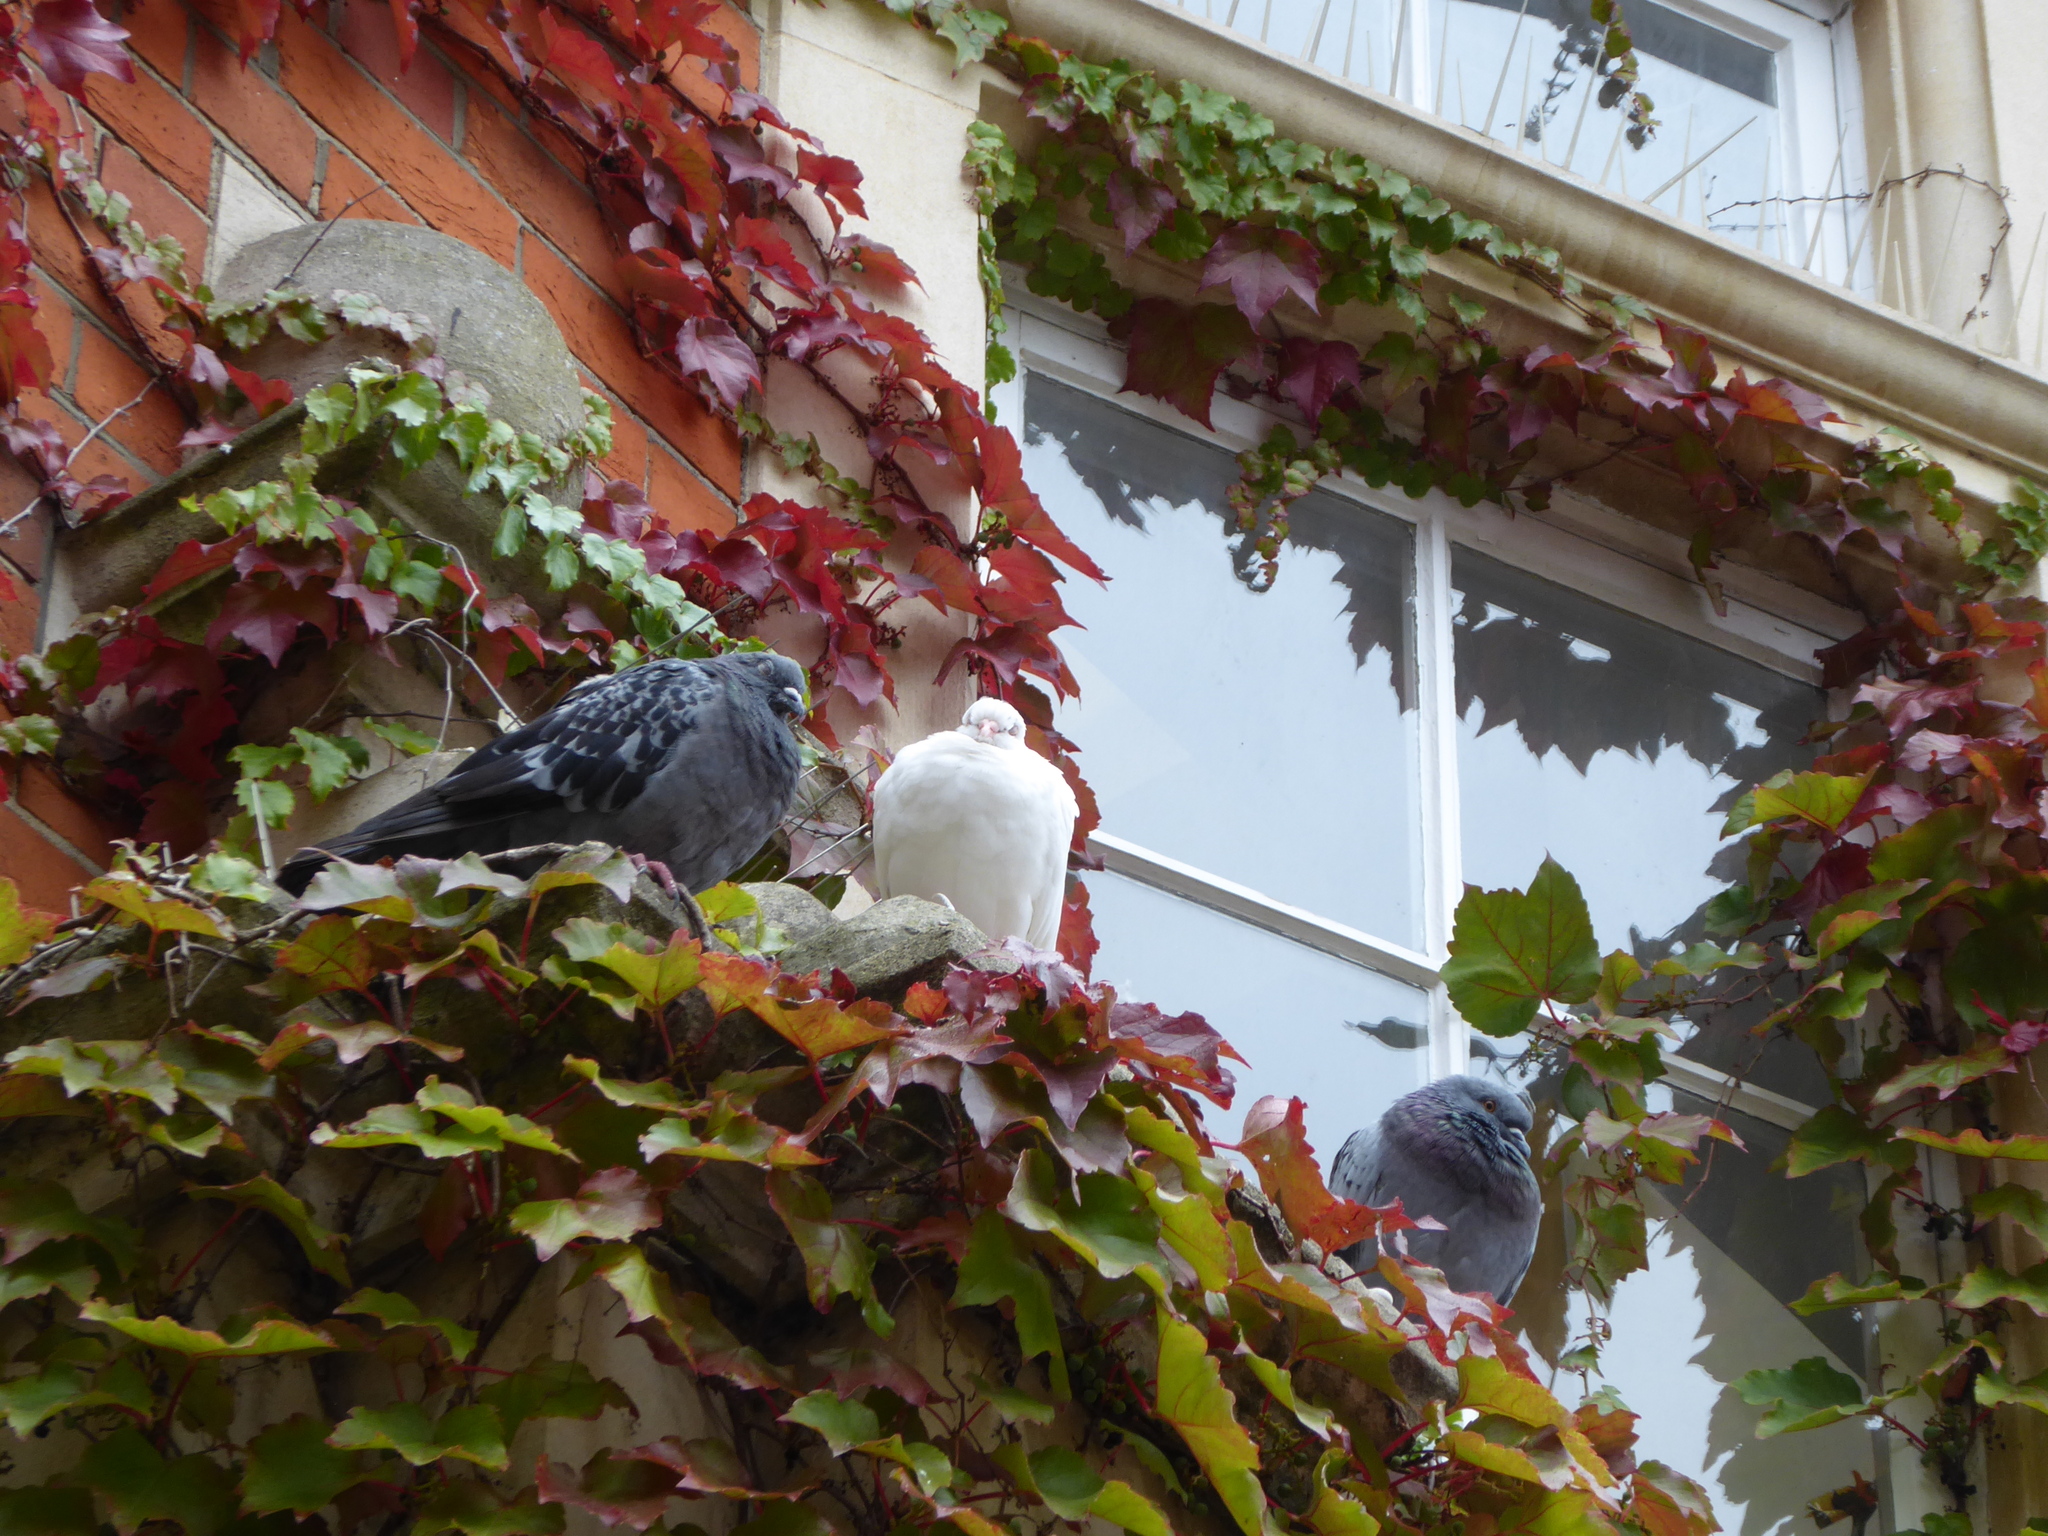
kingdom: Animalia
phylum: Chordata
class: Aves
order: Columbiformes
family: Columbidae
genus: Columba
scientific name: Columba livia
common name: Rock pigeon
